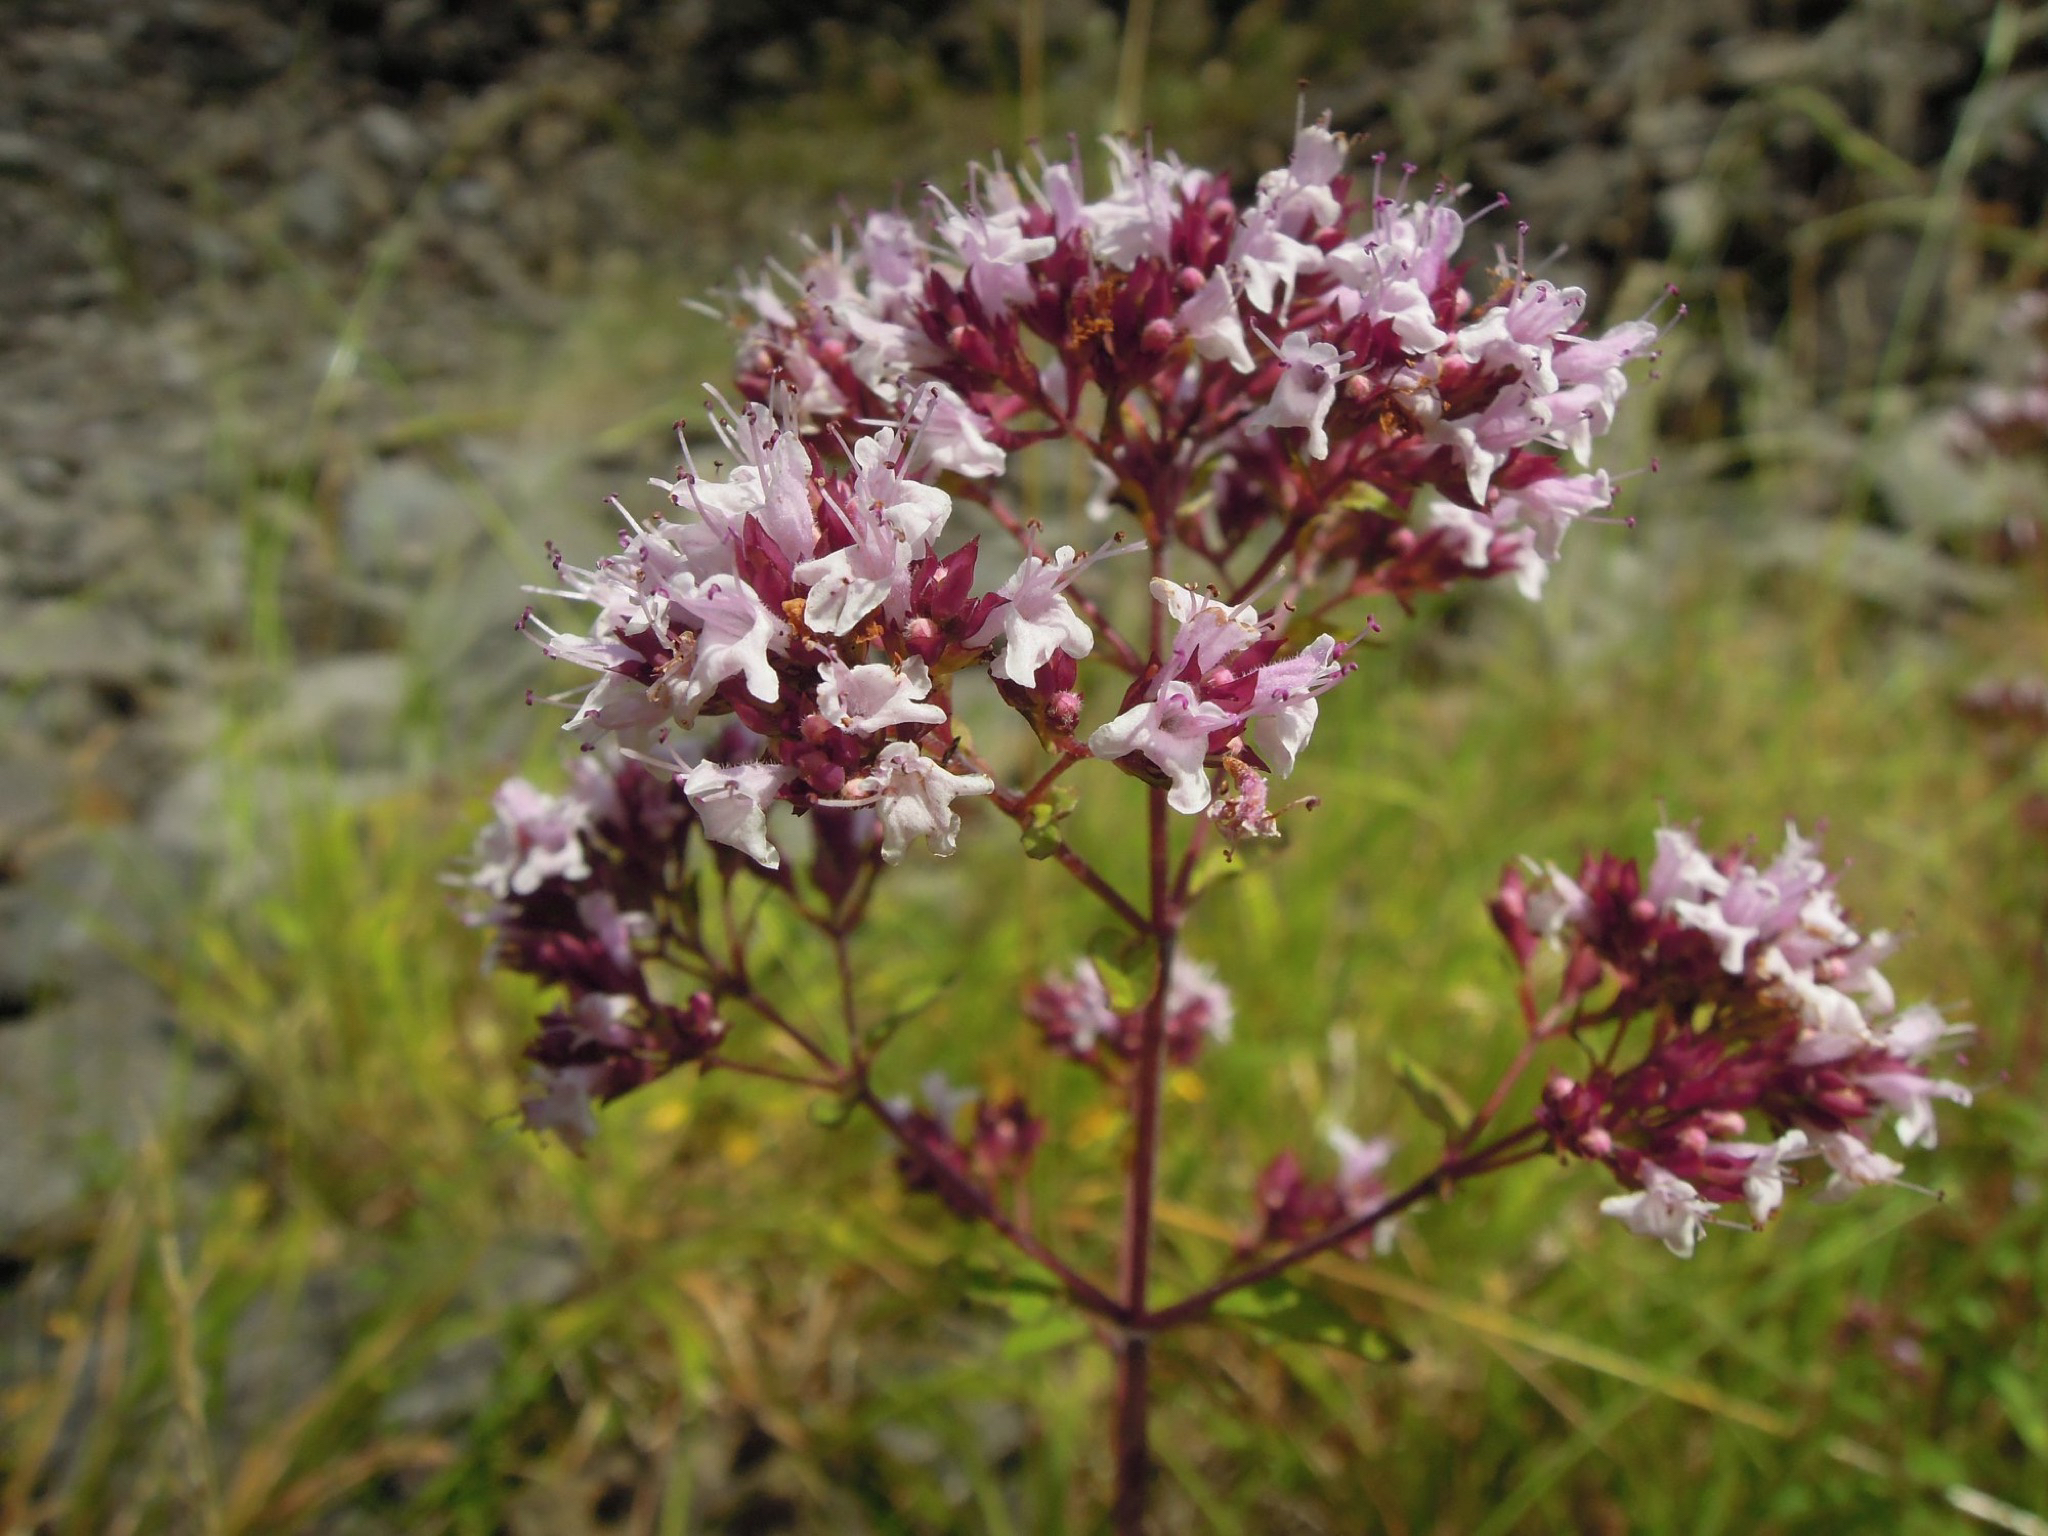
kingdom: Plantae
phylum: Tracheophyta
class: Magnoliopsida
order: Lamiales
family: Lamiaceae
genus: Origanum
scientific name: Origanum vulgare
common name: Wild marjoram
